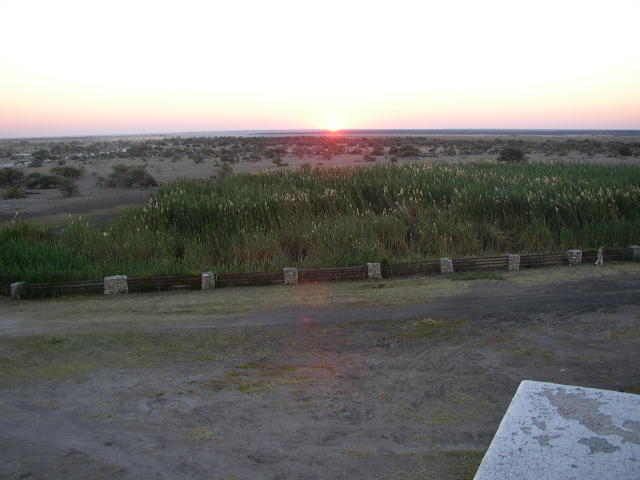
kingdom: Plantae
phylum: Tracheophyta
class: Liliopsida
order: Poales
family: Poaceae
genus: Phragmites
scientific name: Phragmites australis
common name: Common reed
